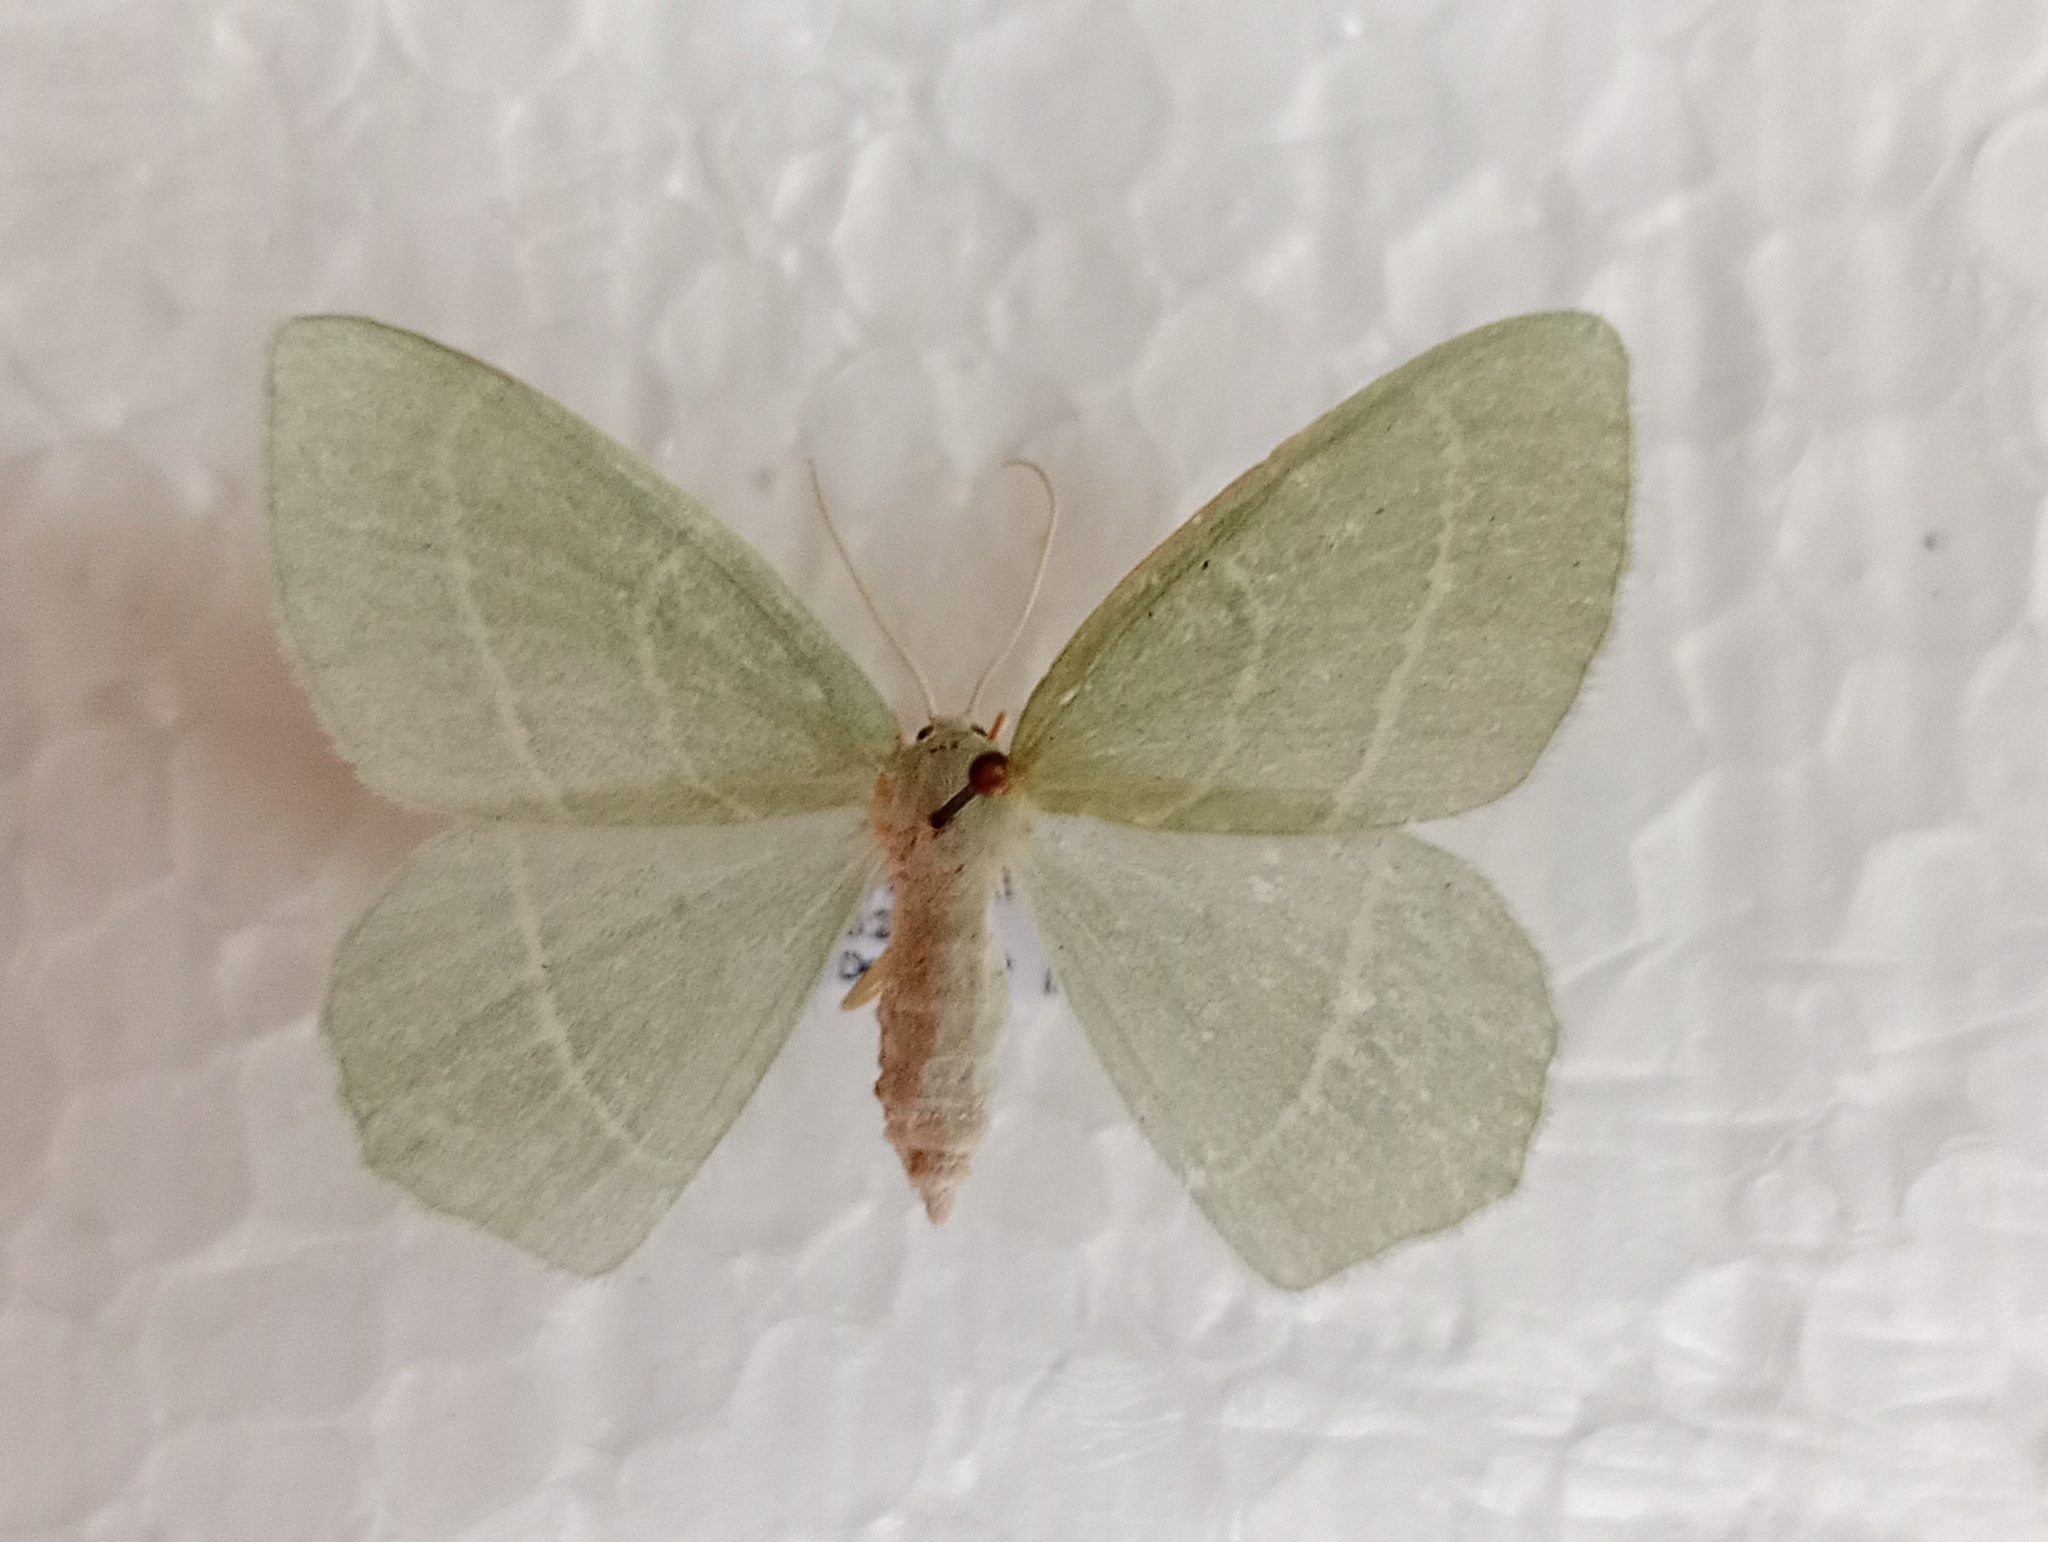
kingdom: Animalia
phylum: Arthropoda
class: Insecta
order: Lepidoptera
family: Geometridae
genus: Hemistola
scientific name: Hemistola chrysoprasaria
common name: Small emerald
